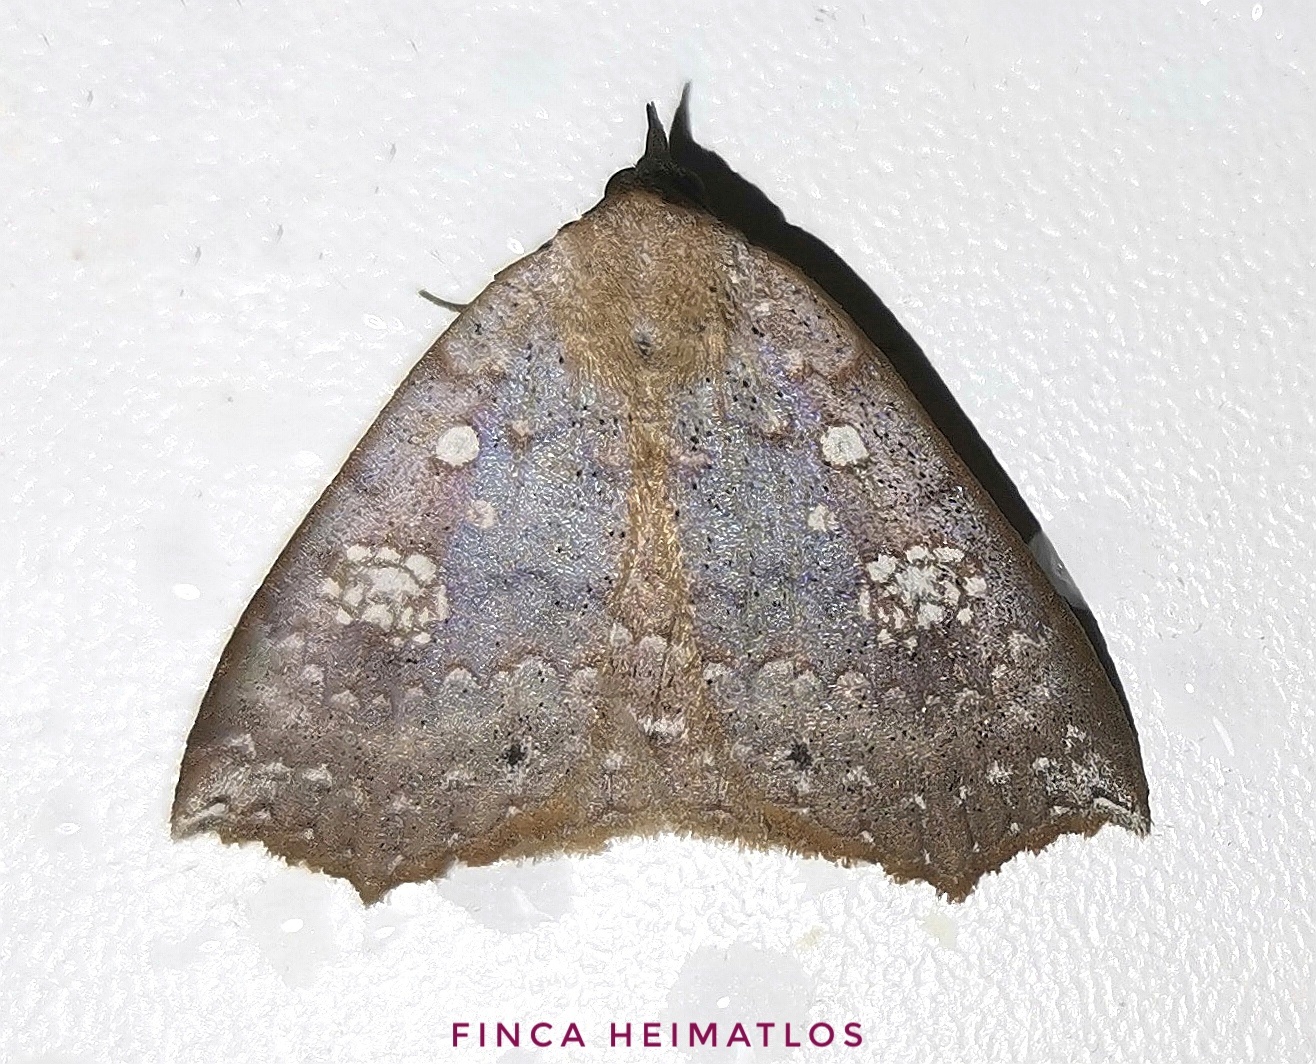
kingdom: Animalia
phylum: Arthropoda
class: Insecta
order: Lepidoptera
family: Erebidae
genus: Isogona
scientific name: Isogona albistellata
